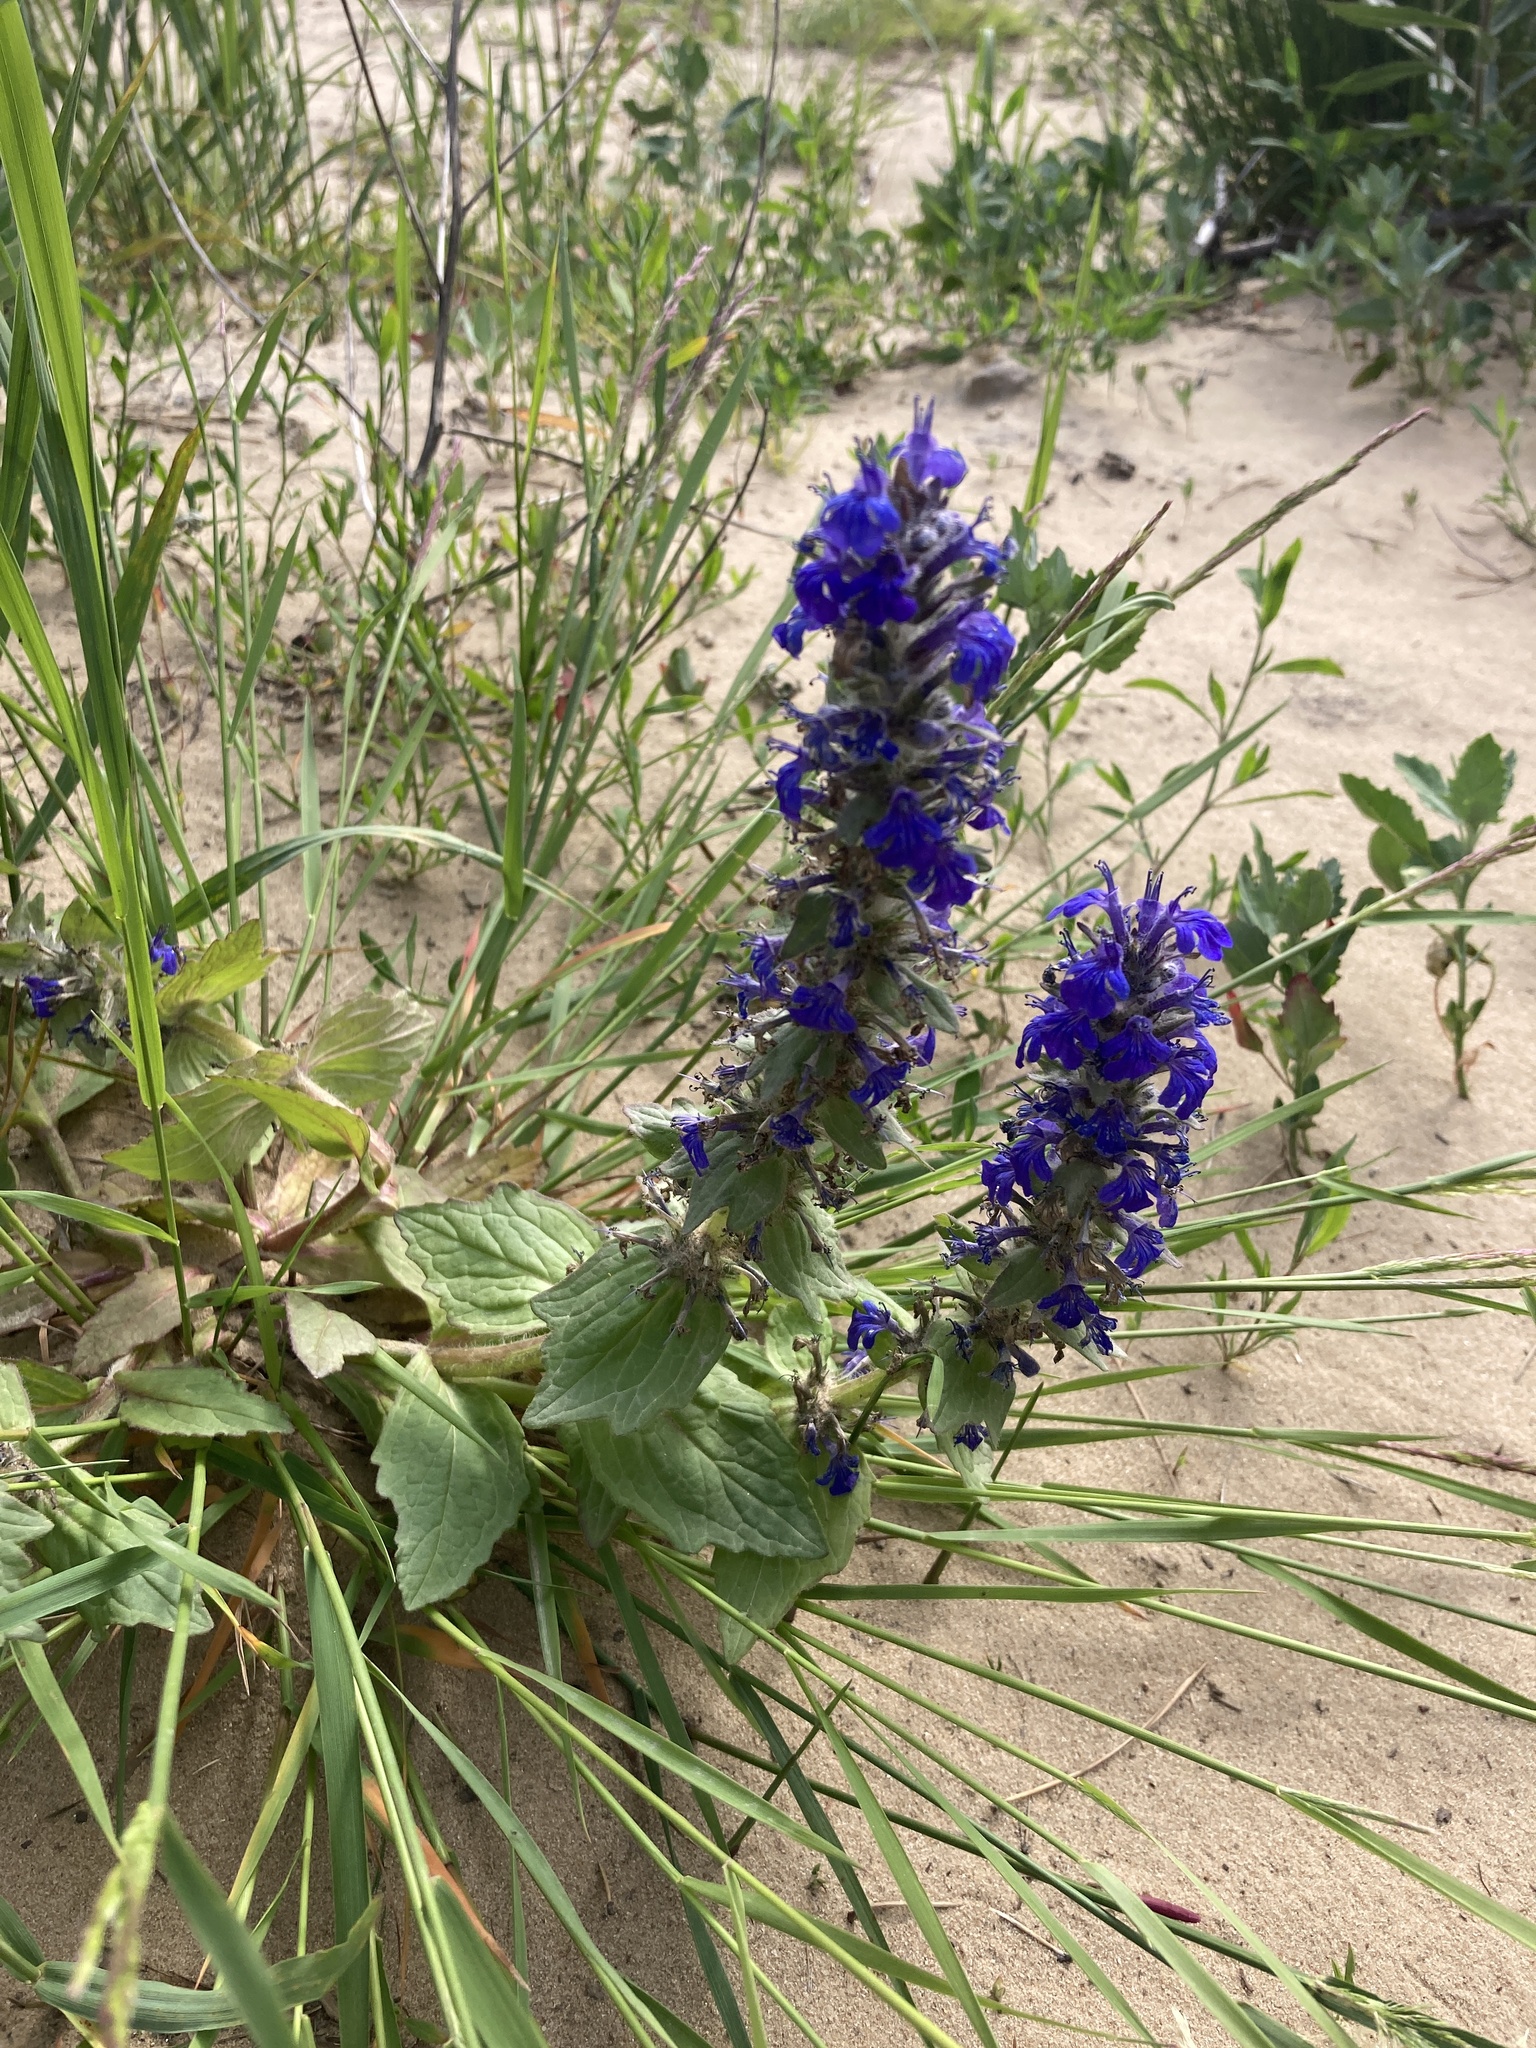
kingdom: Plantae
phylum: Tracheophyta
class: Magnoliopsida
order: Lamiales
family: Lamiaceae
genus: Ajuga
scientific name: Ajuga genevensis
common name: Blue bugle
